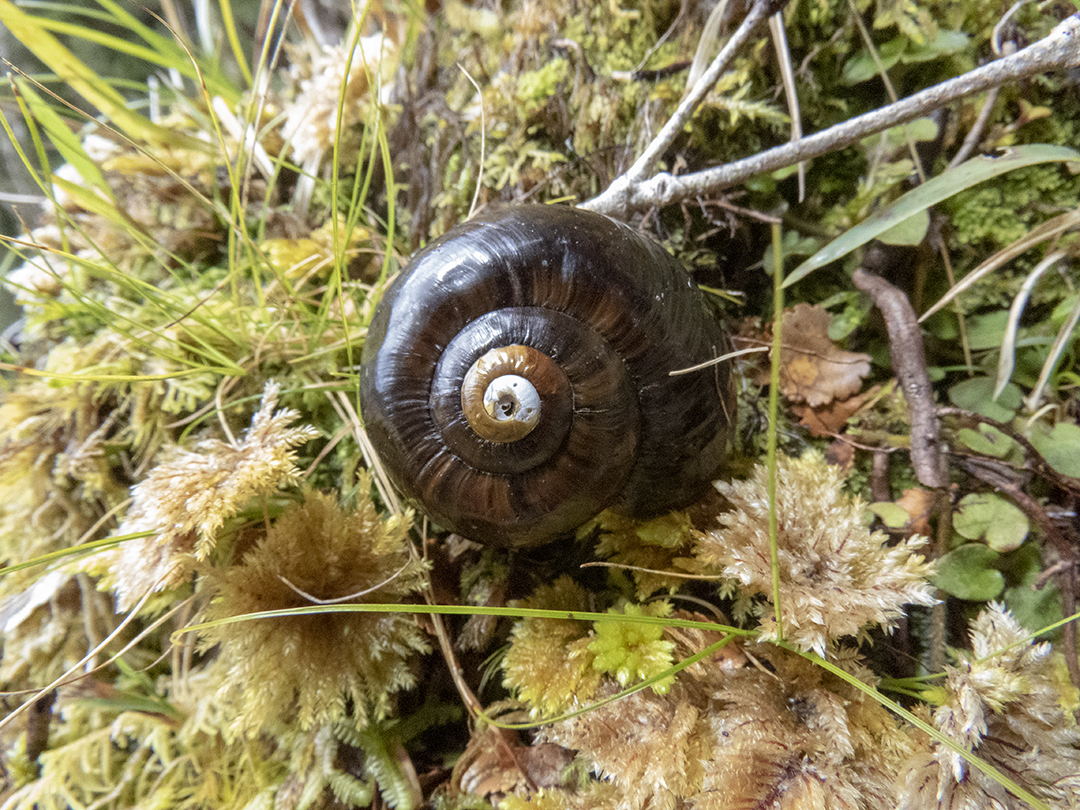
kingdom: Animalia
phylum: Mollusca
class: Gastropoda
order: Stylommatophora
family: Rhytididae
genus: Powelliphanta
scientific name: Powelliphanta patrickensis
